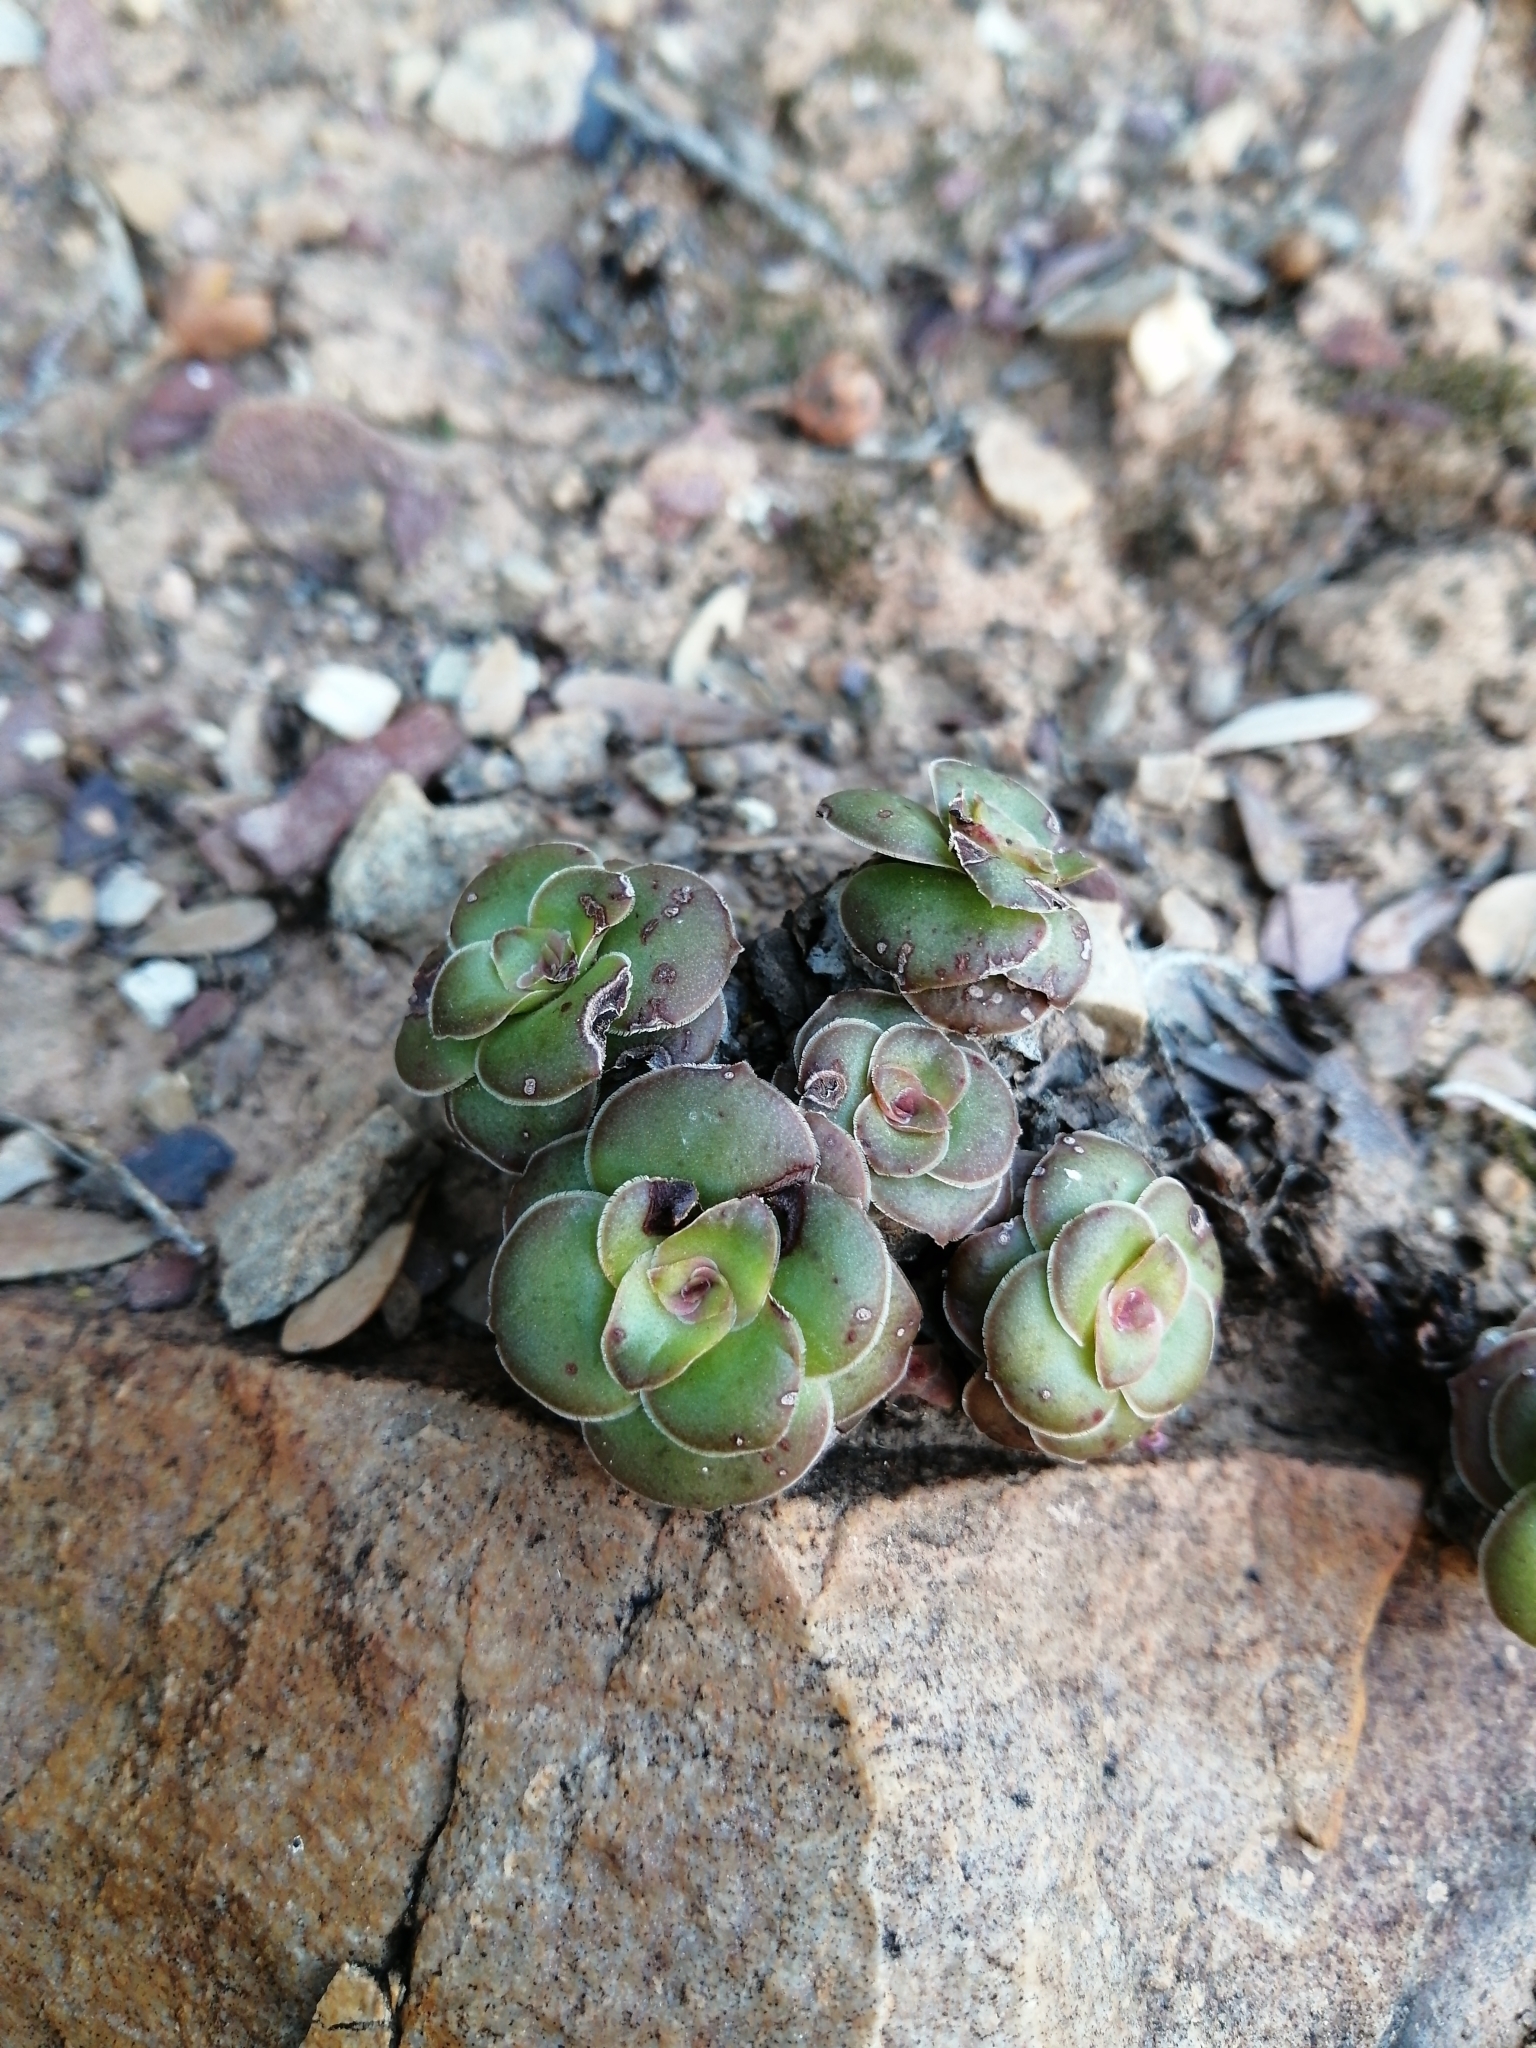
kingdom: Plantae
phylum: Tracheophyta
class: Magnoliopsida
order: Saxifragales
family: Crassulaceae
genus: Crassula
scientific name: Crassula orbicularis
